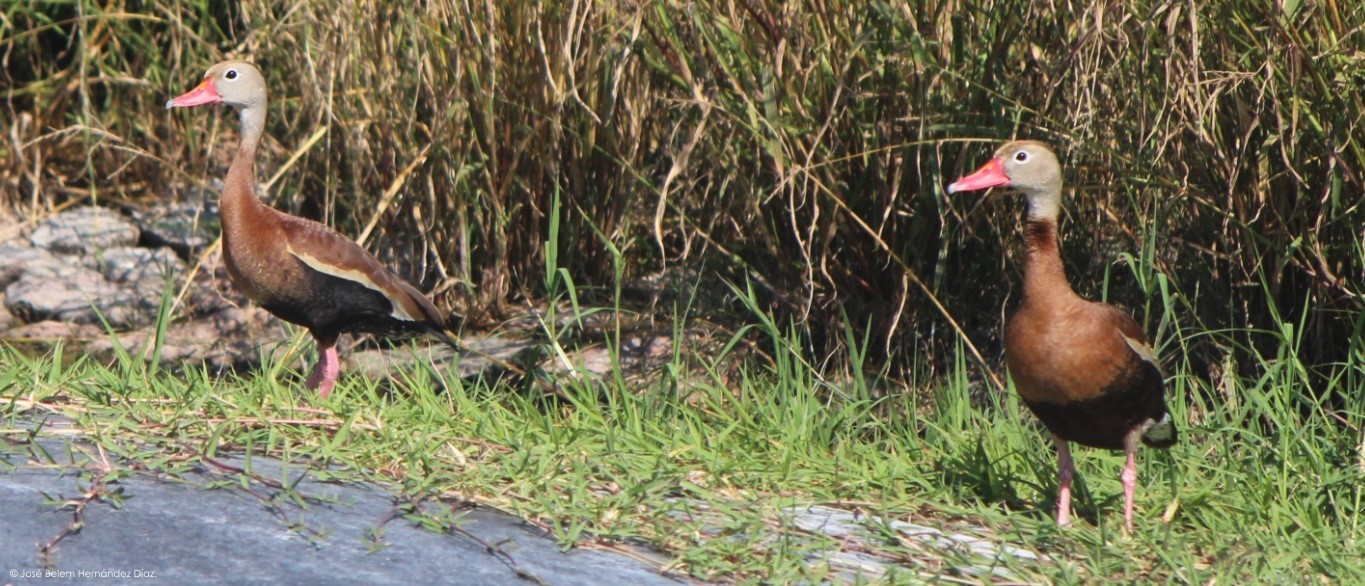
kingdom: Animalia
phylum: Chordata
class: Aves
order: Anseriformes
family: Anatidae
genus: Dendrocygna
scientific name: Dendrocygna autumnalis
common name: Black-bellied whistling duck
